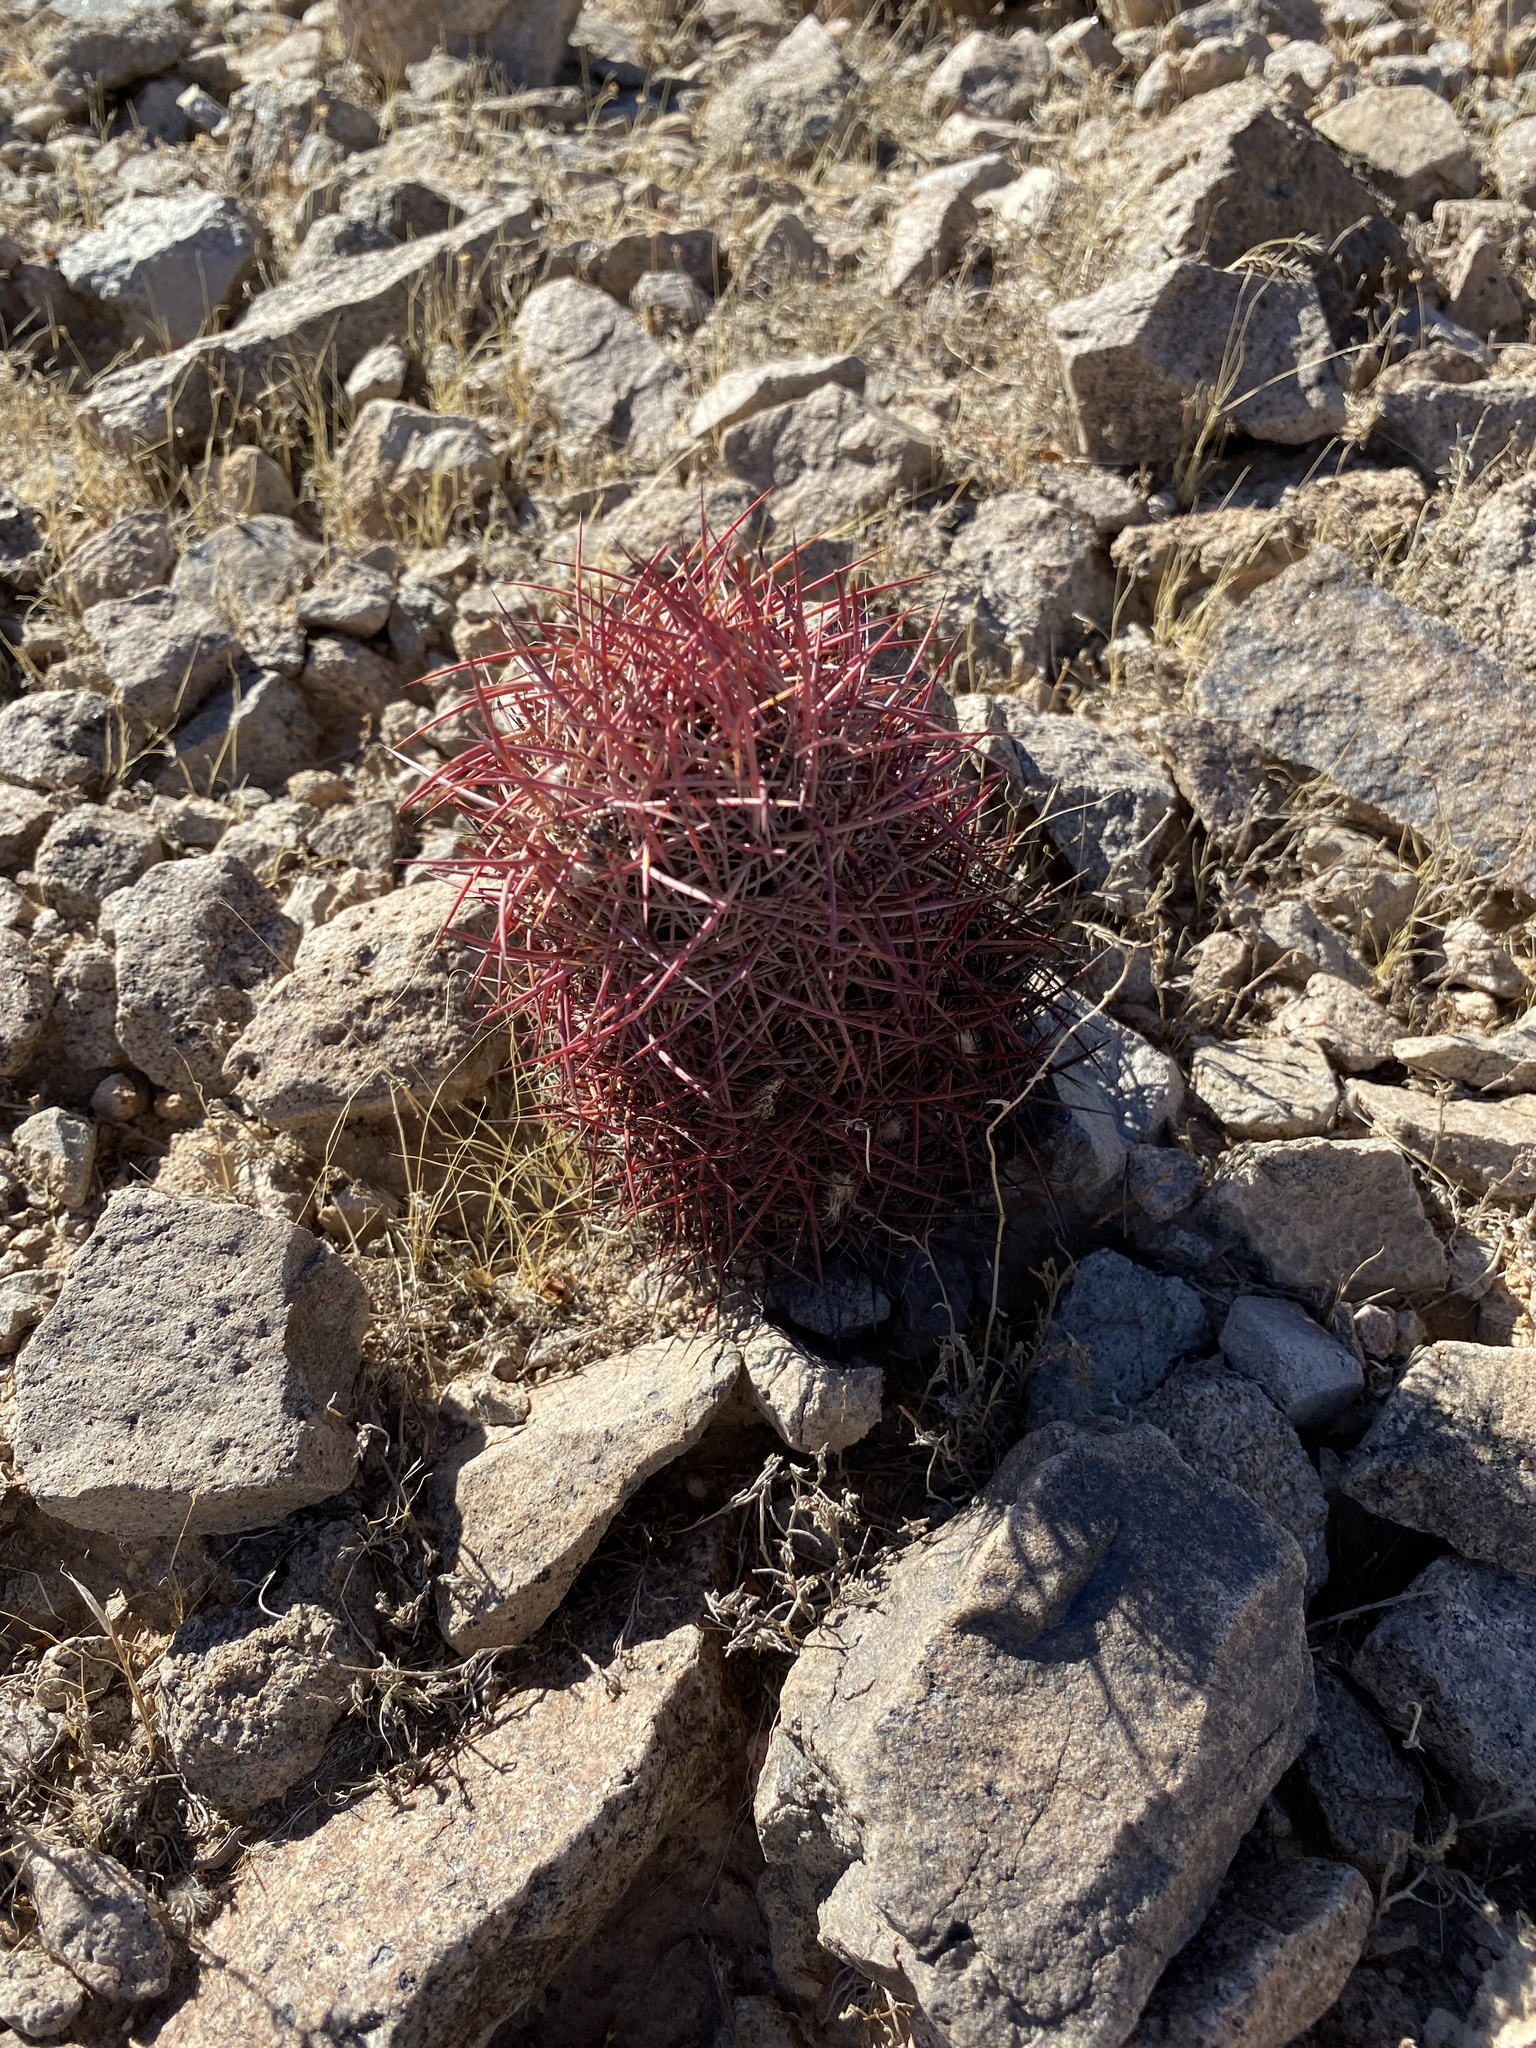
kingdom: Plantae
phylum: Tracheophyta
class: Magnoliopsida
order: Caryophyllales
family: Cactaceae
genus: Sclerocactus
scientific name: Sclerocactus johnsonii
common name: Eight-spine fishhook cactus
